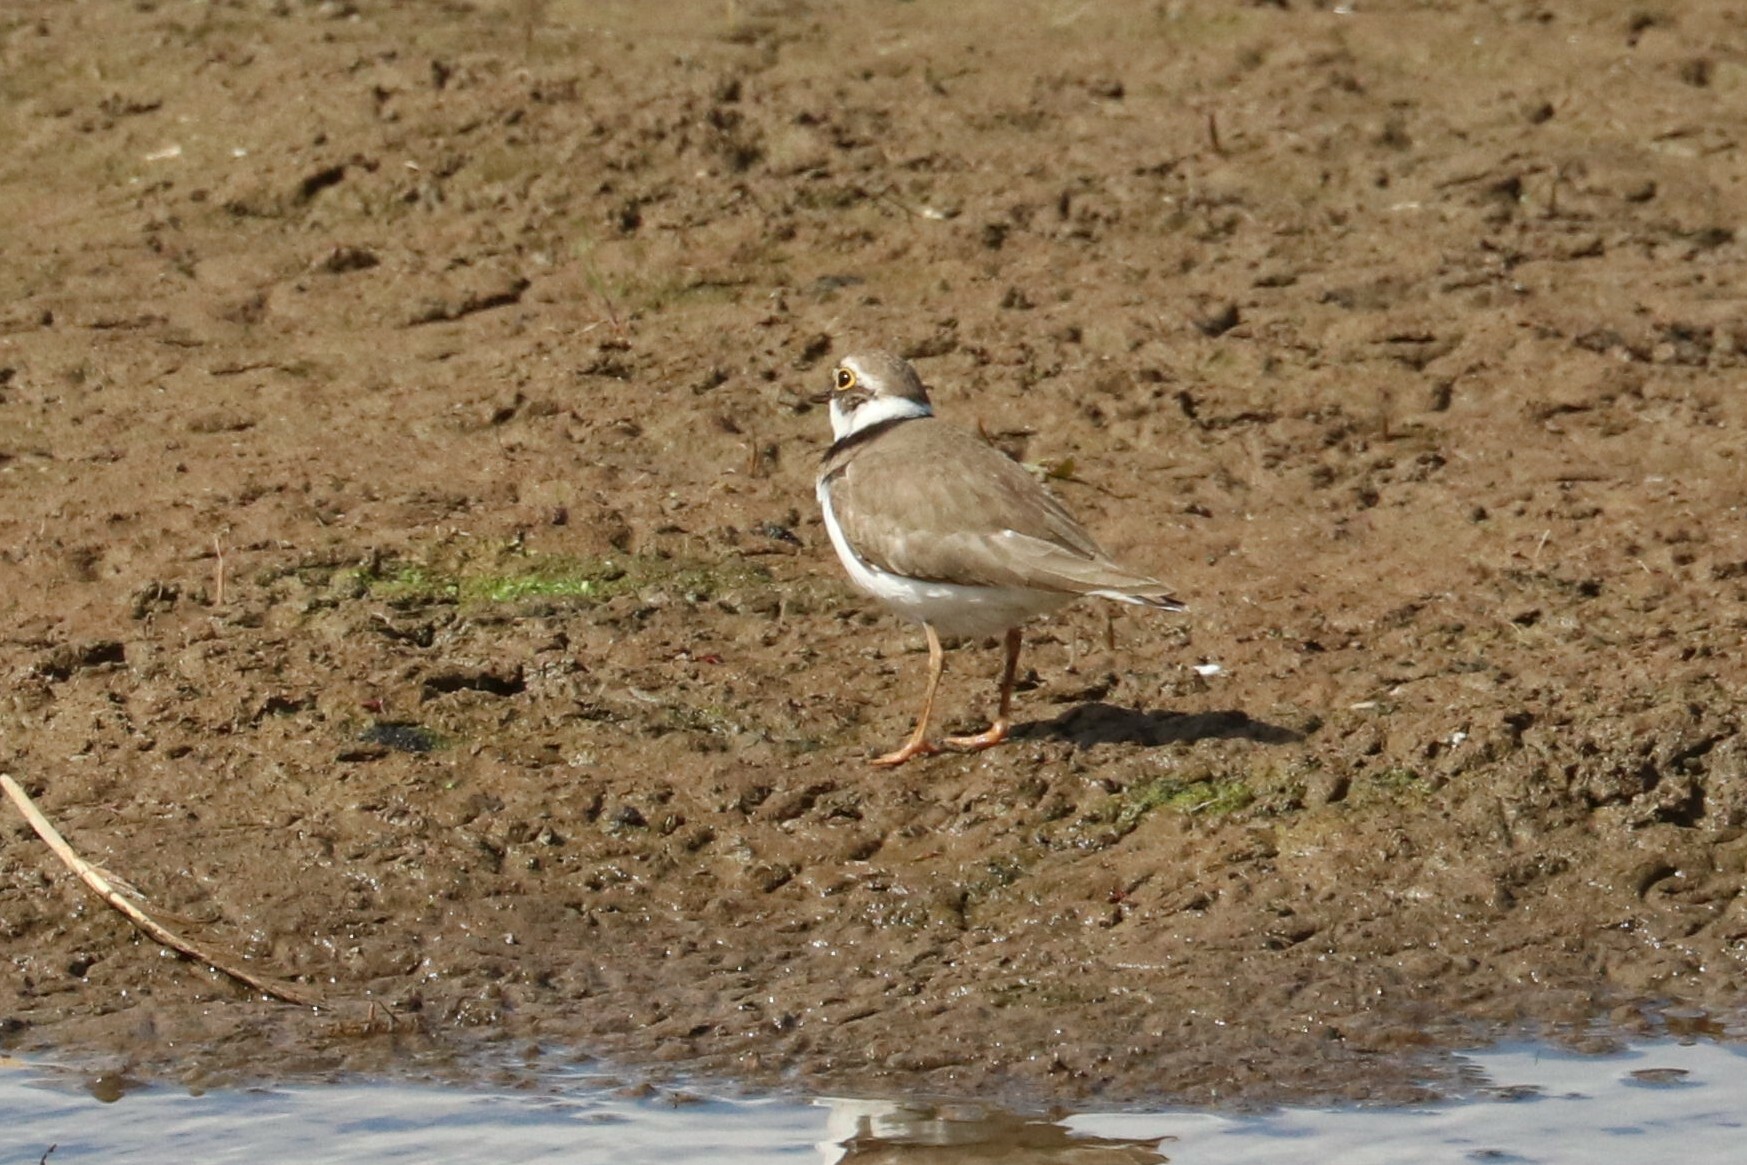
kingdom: Animalia
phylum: Chordata
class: Aves
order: Charadriiformes
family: Charadriidae
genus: Charadrius
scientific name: Charadrius dubius
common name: Little ringed plover
